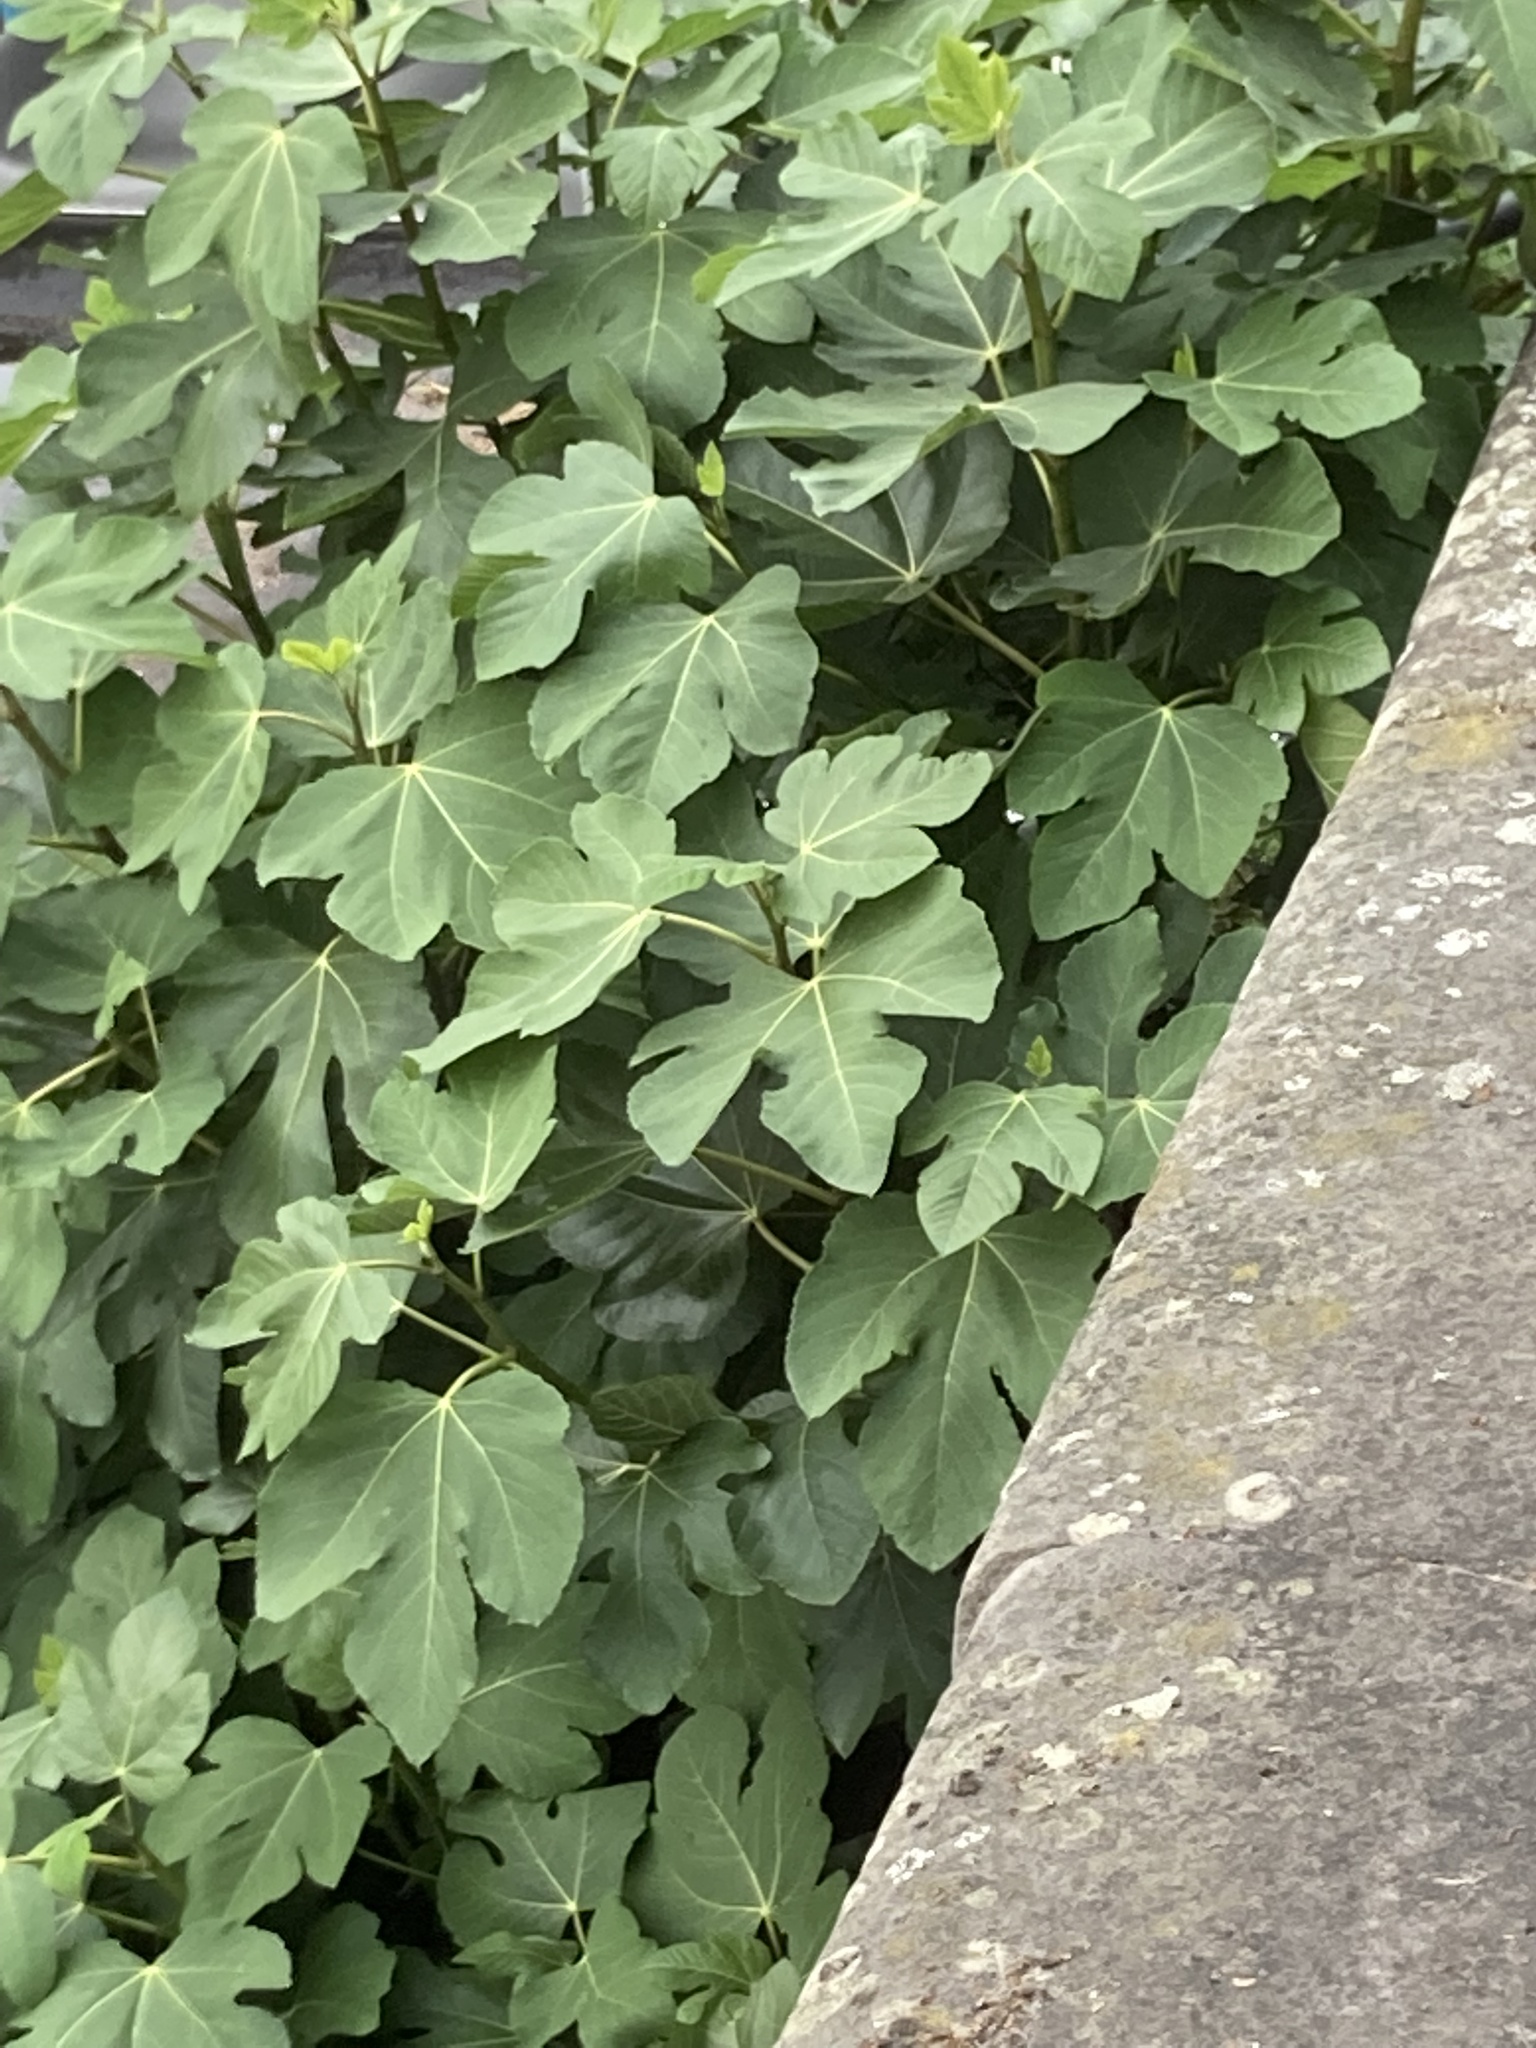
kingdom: Plantae
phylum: Tracheophyta
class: Magnoliopsida
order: Rosales
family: Moraceae
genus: Ficus
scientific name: Ficus carica
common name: Fig
